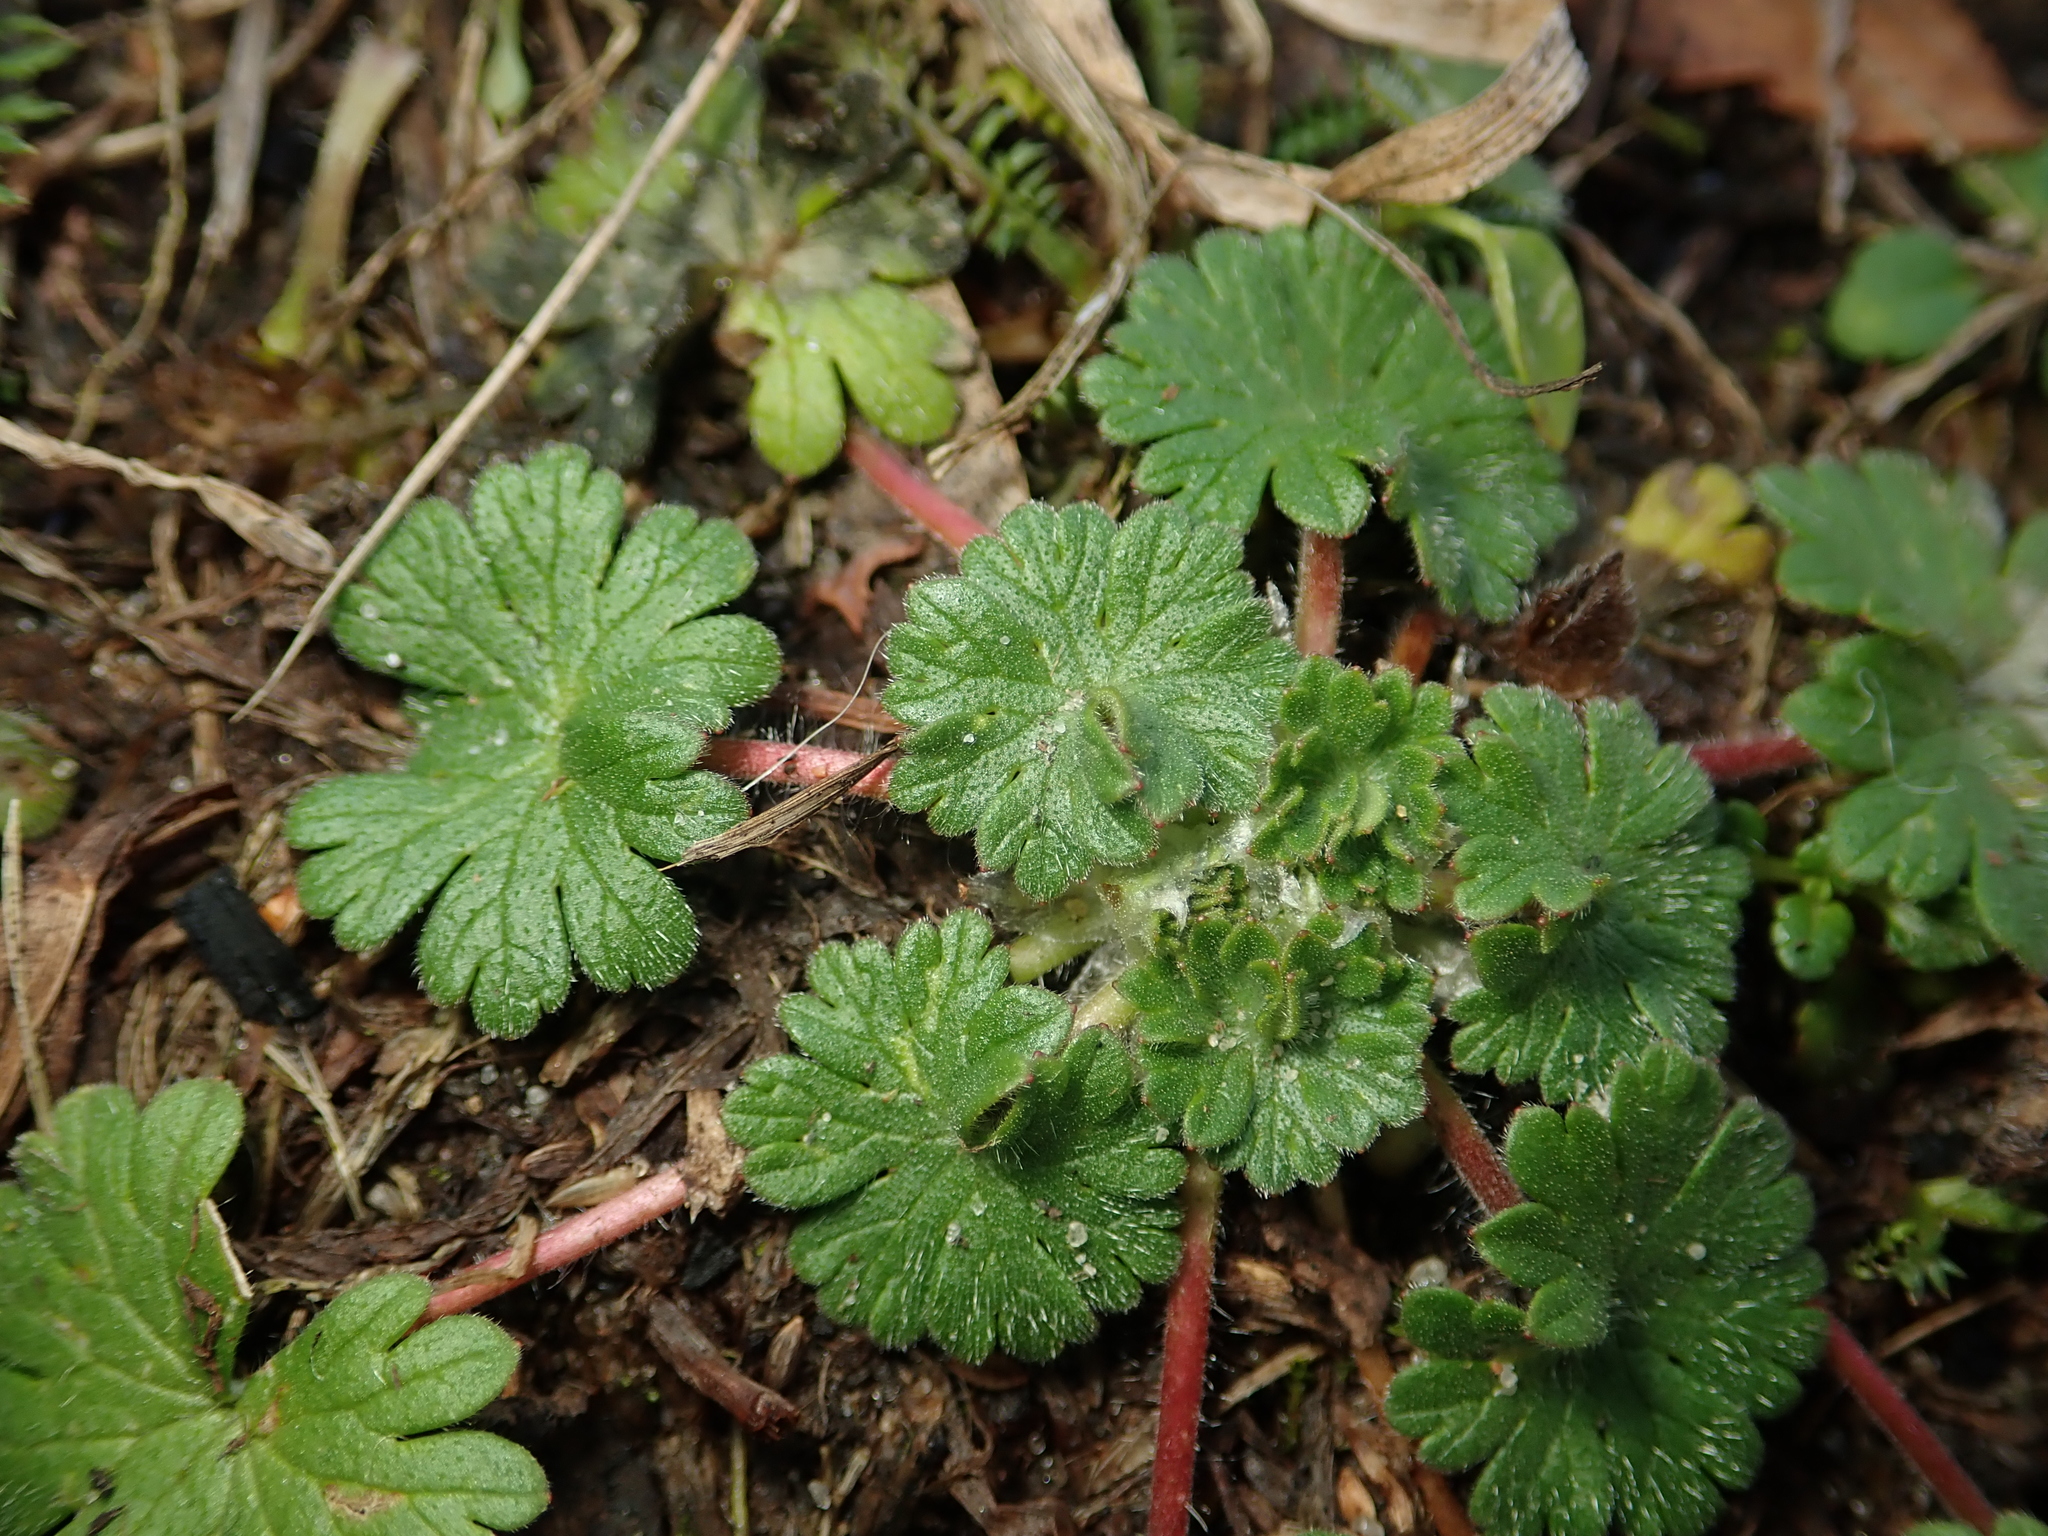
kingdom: Plantae
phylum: Tracheophyta
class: Magnoliopsida
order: Geraniales
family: Geraniaceae
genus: Geranium
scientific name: Geranium molle
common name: Dove's-foot crane's-bill
